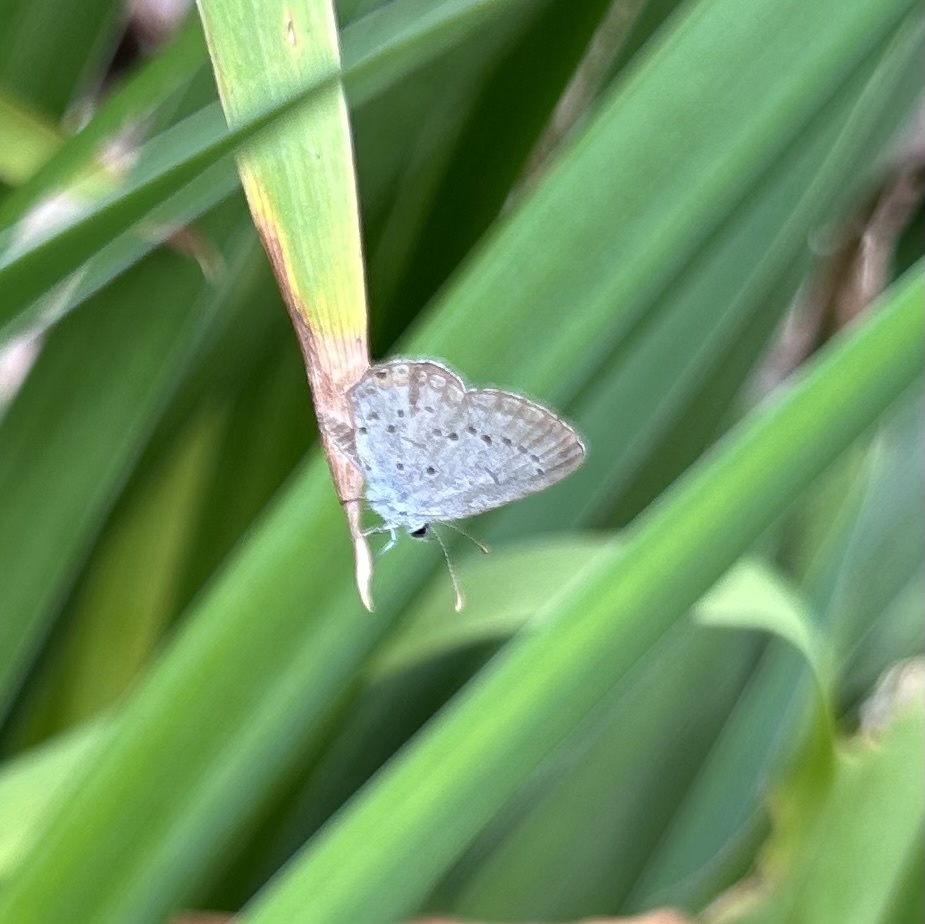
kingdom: Animalia
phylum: Arthropoda
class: Insecta
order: Lepidoptera
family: Lycaenidae
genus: Elkalyce
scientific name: Elkalyce comyntas
